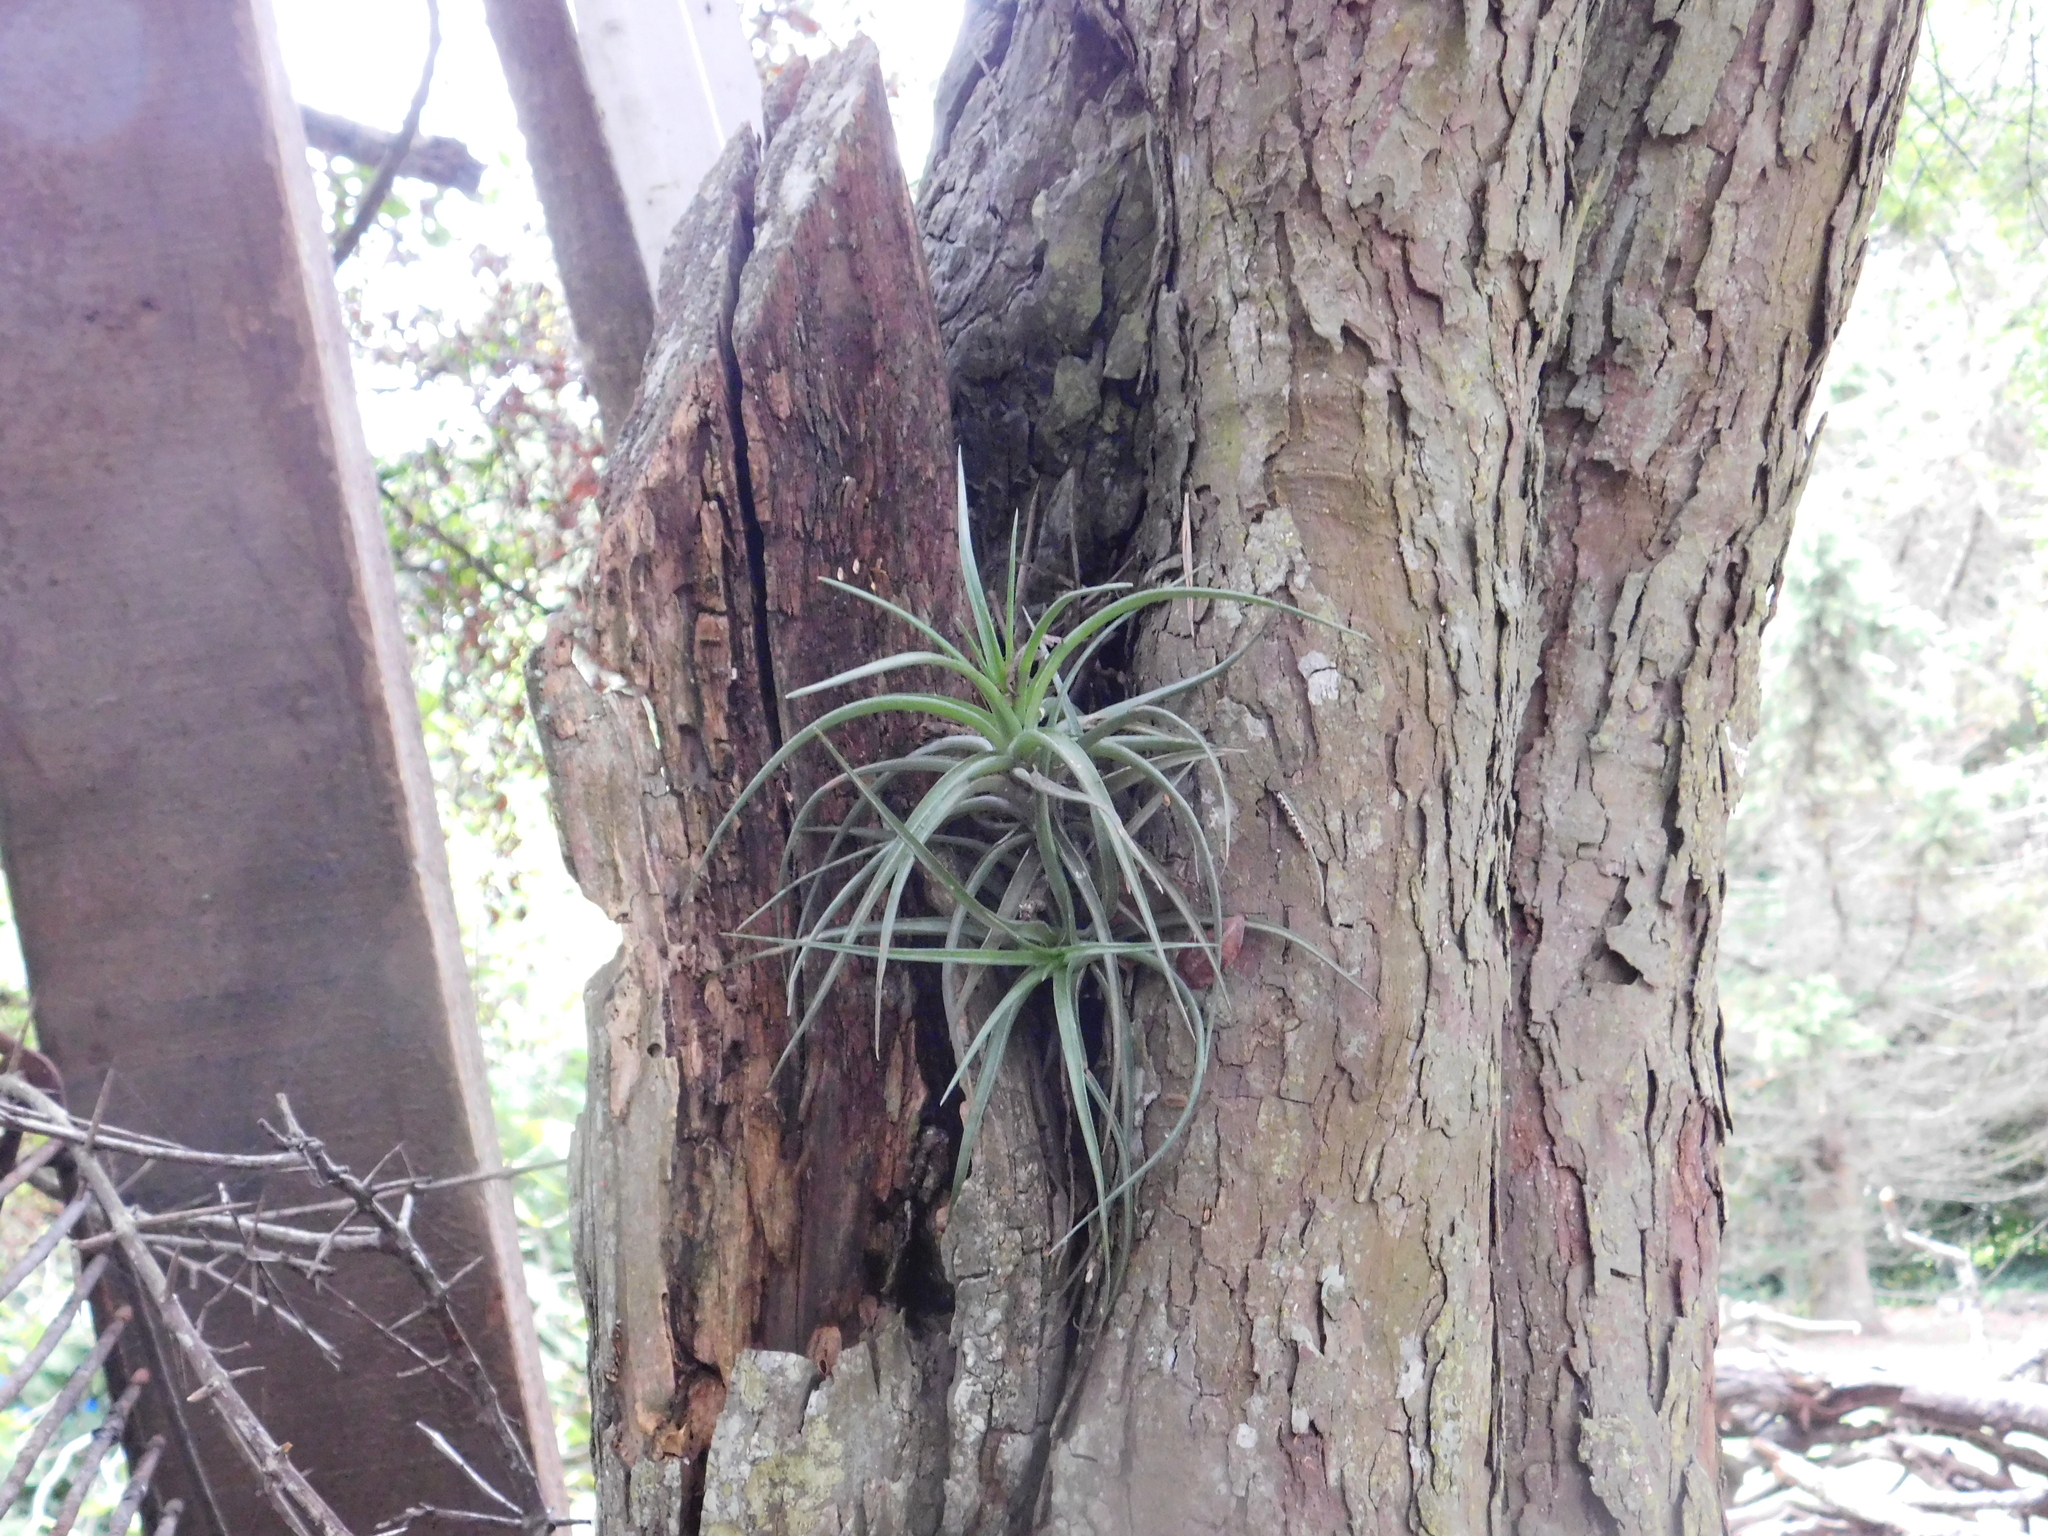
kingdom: Plantae
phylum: Tracheophyta
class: Liliopsida
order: Poales
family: Bromeliaceae
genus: Tillandsia
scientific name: Tillandsia aeranthos
